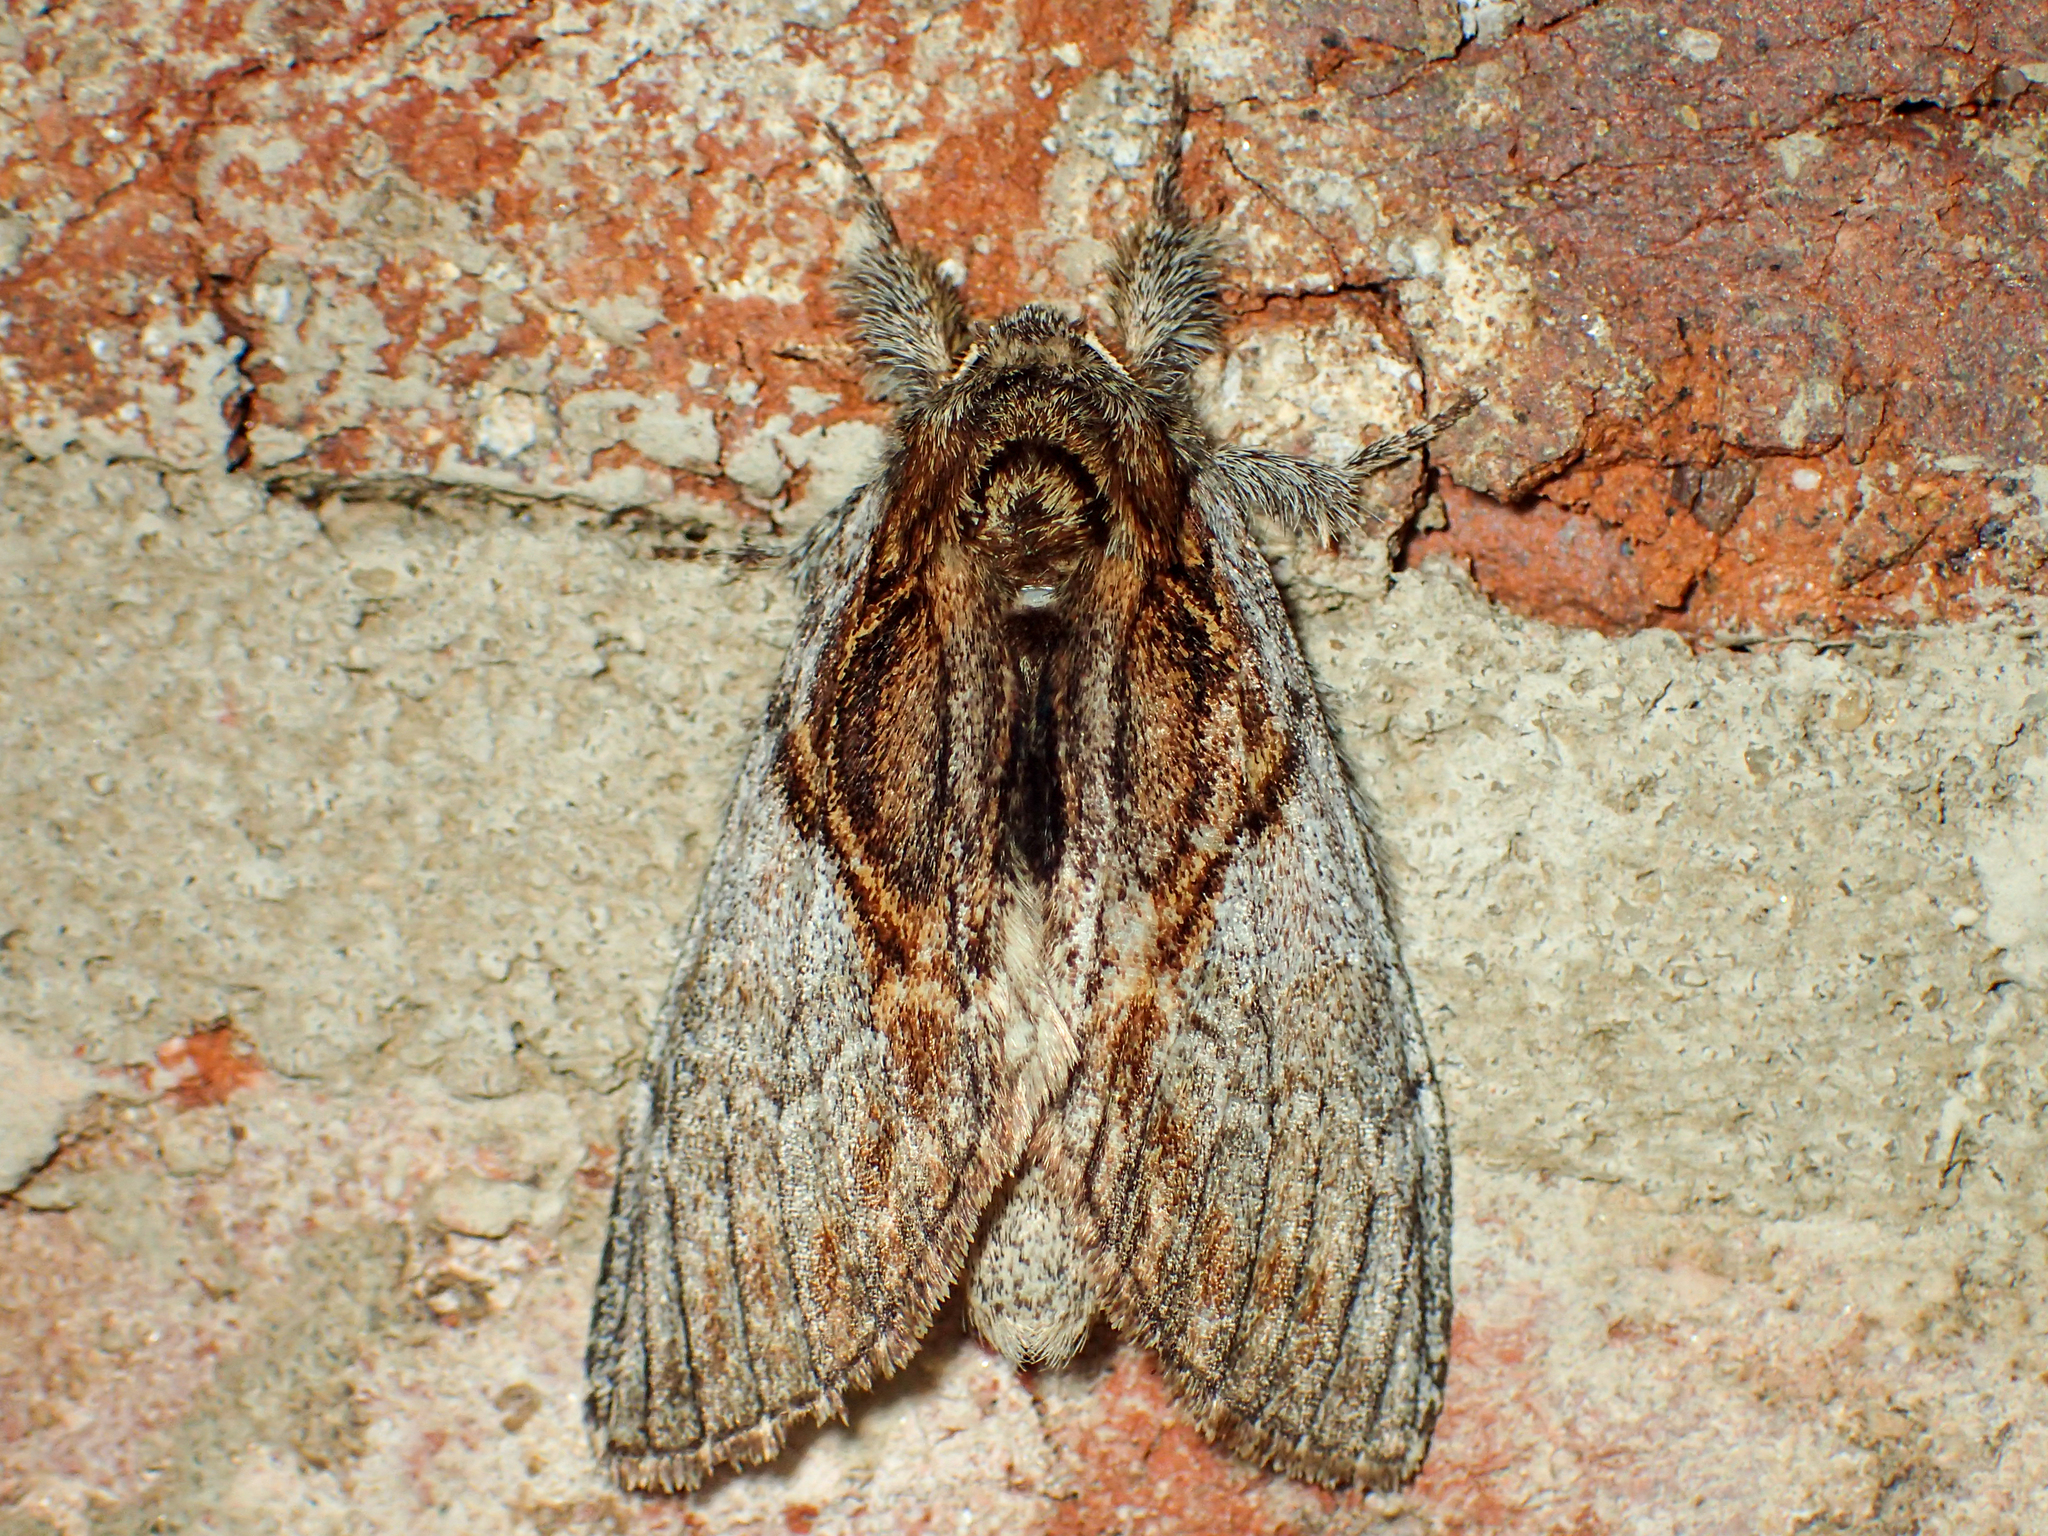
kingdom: Animalia
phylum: Arthropoda
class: Insecta
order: Lepidoptera
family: Notodontidae
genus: Peridea
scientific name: Peridea basitriens
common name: Oval-based prominent
